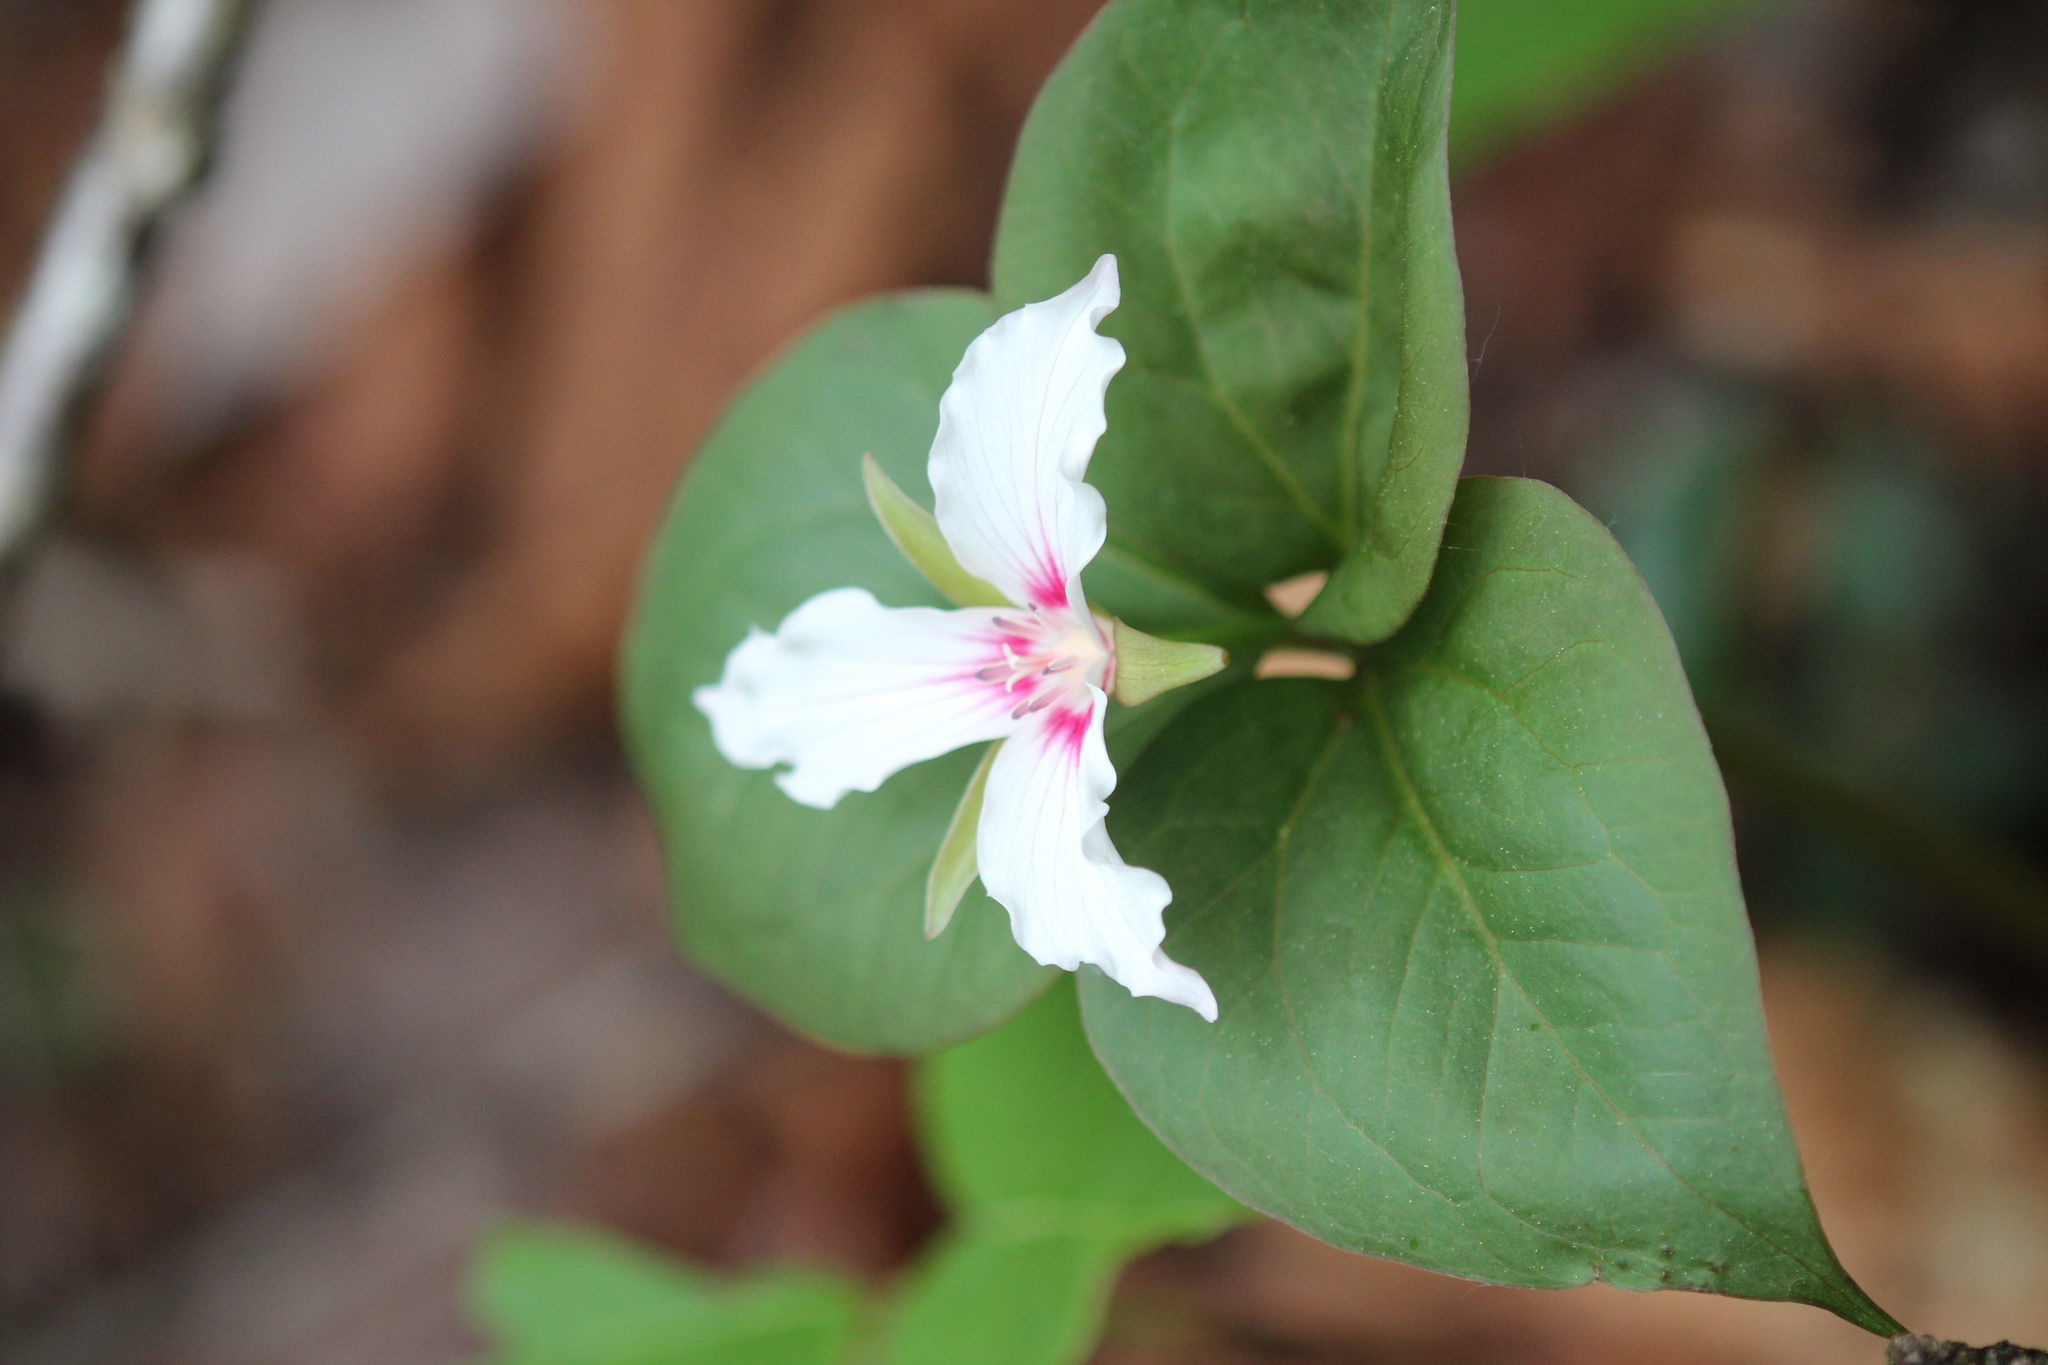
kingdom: Plantae
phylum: Tracheophyta
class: Liliopsida
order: Liliales
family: Melanthiaceae
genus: Trillium
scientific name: Trillium undulatum
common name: Paint trillium
